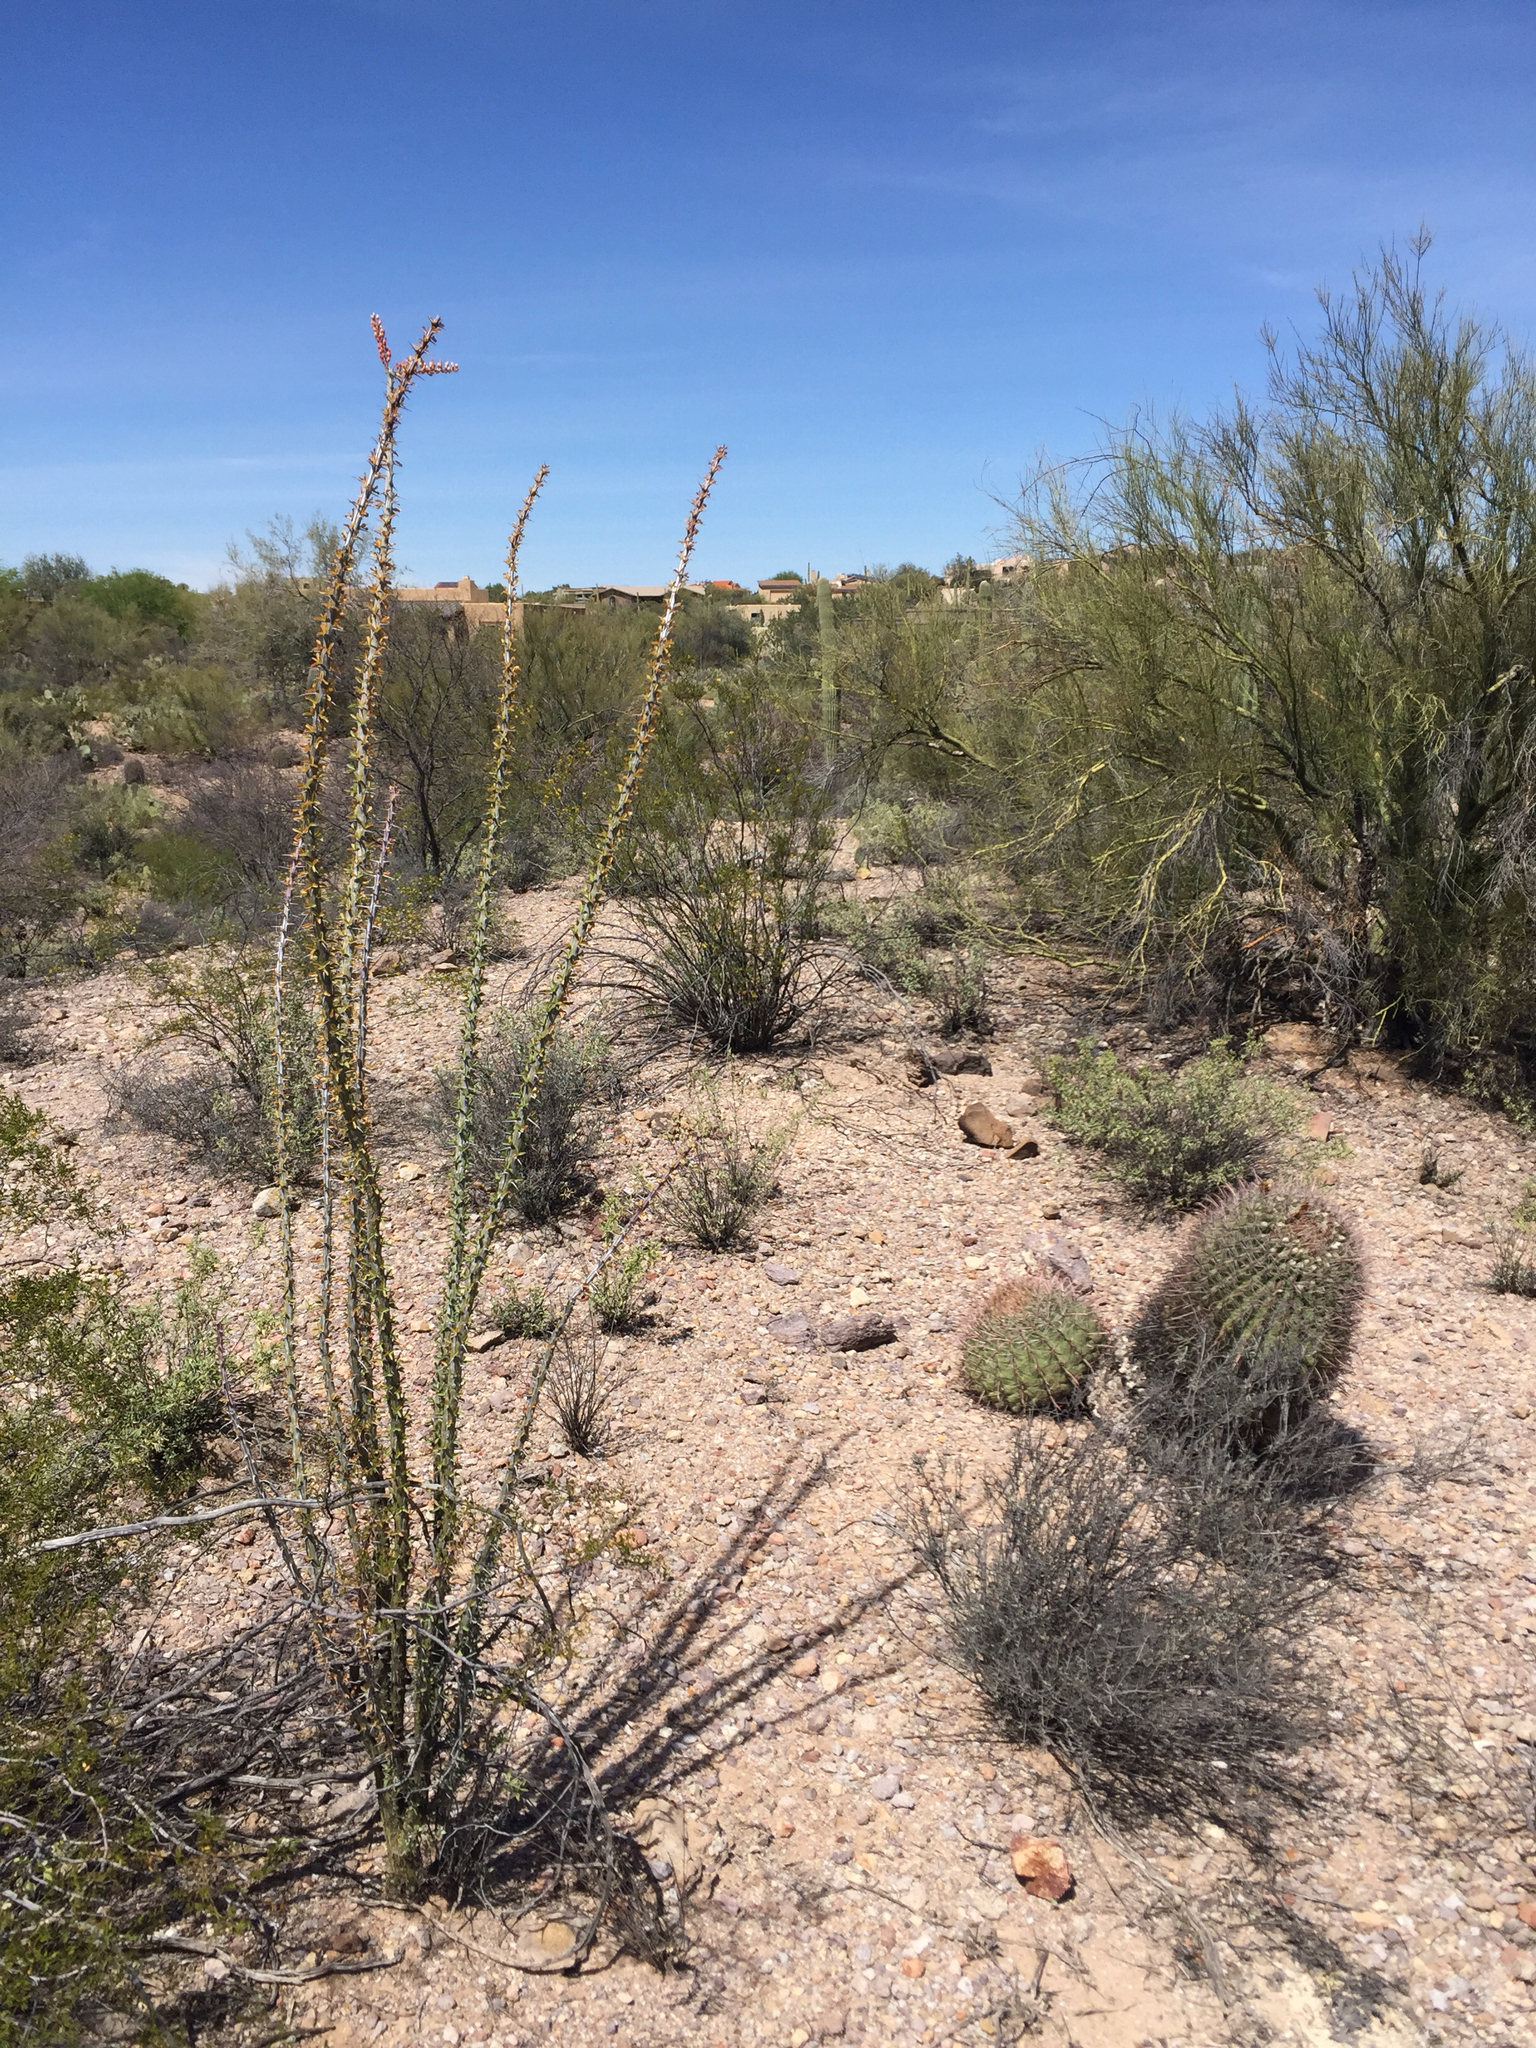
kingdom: Plantae
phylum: Tracheophyta
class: Magnoliopsida
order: Caryophyllales
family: Cactaceae
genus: Ferocactus
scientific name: Ferocactus wislizeni
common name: Candy barrel cactus
